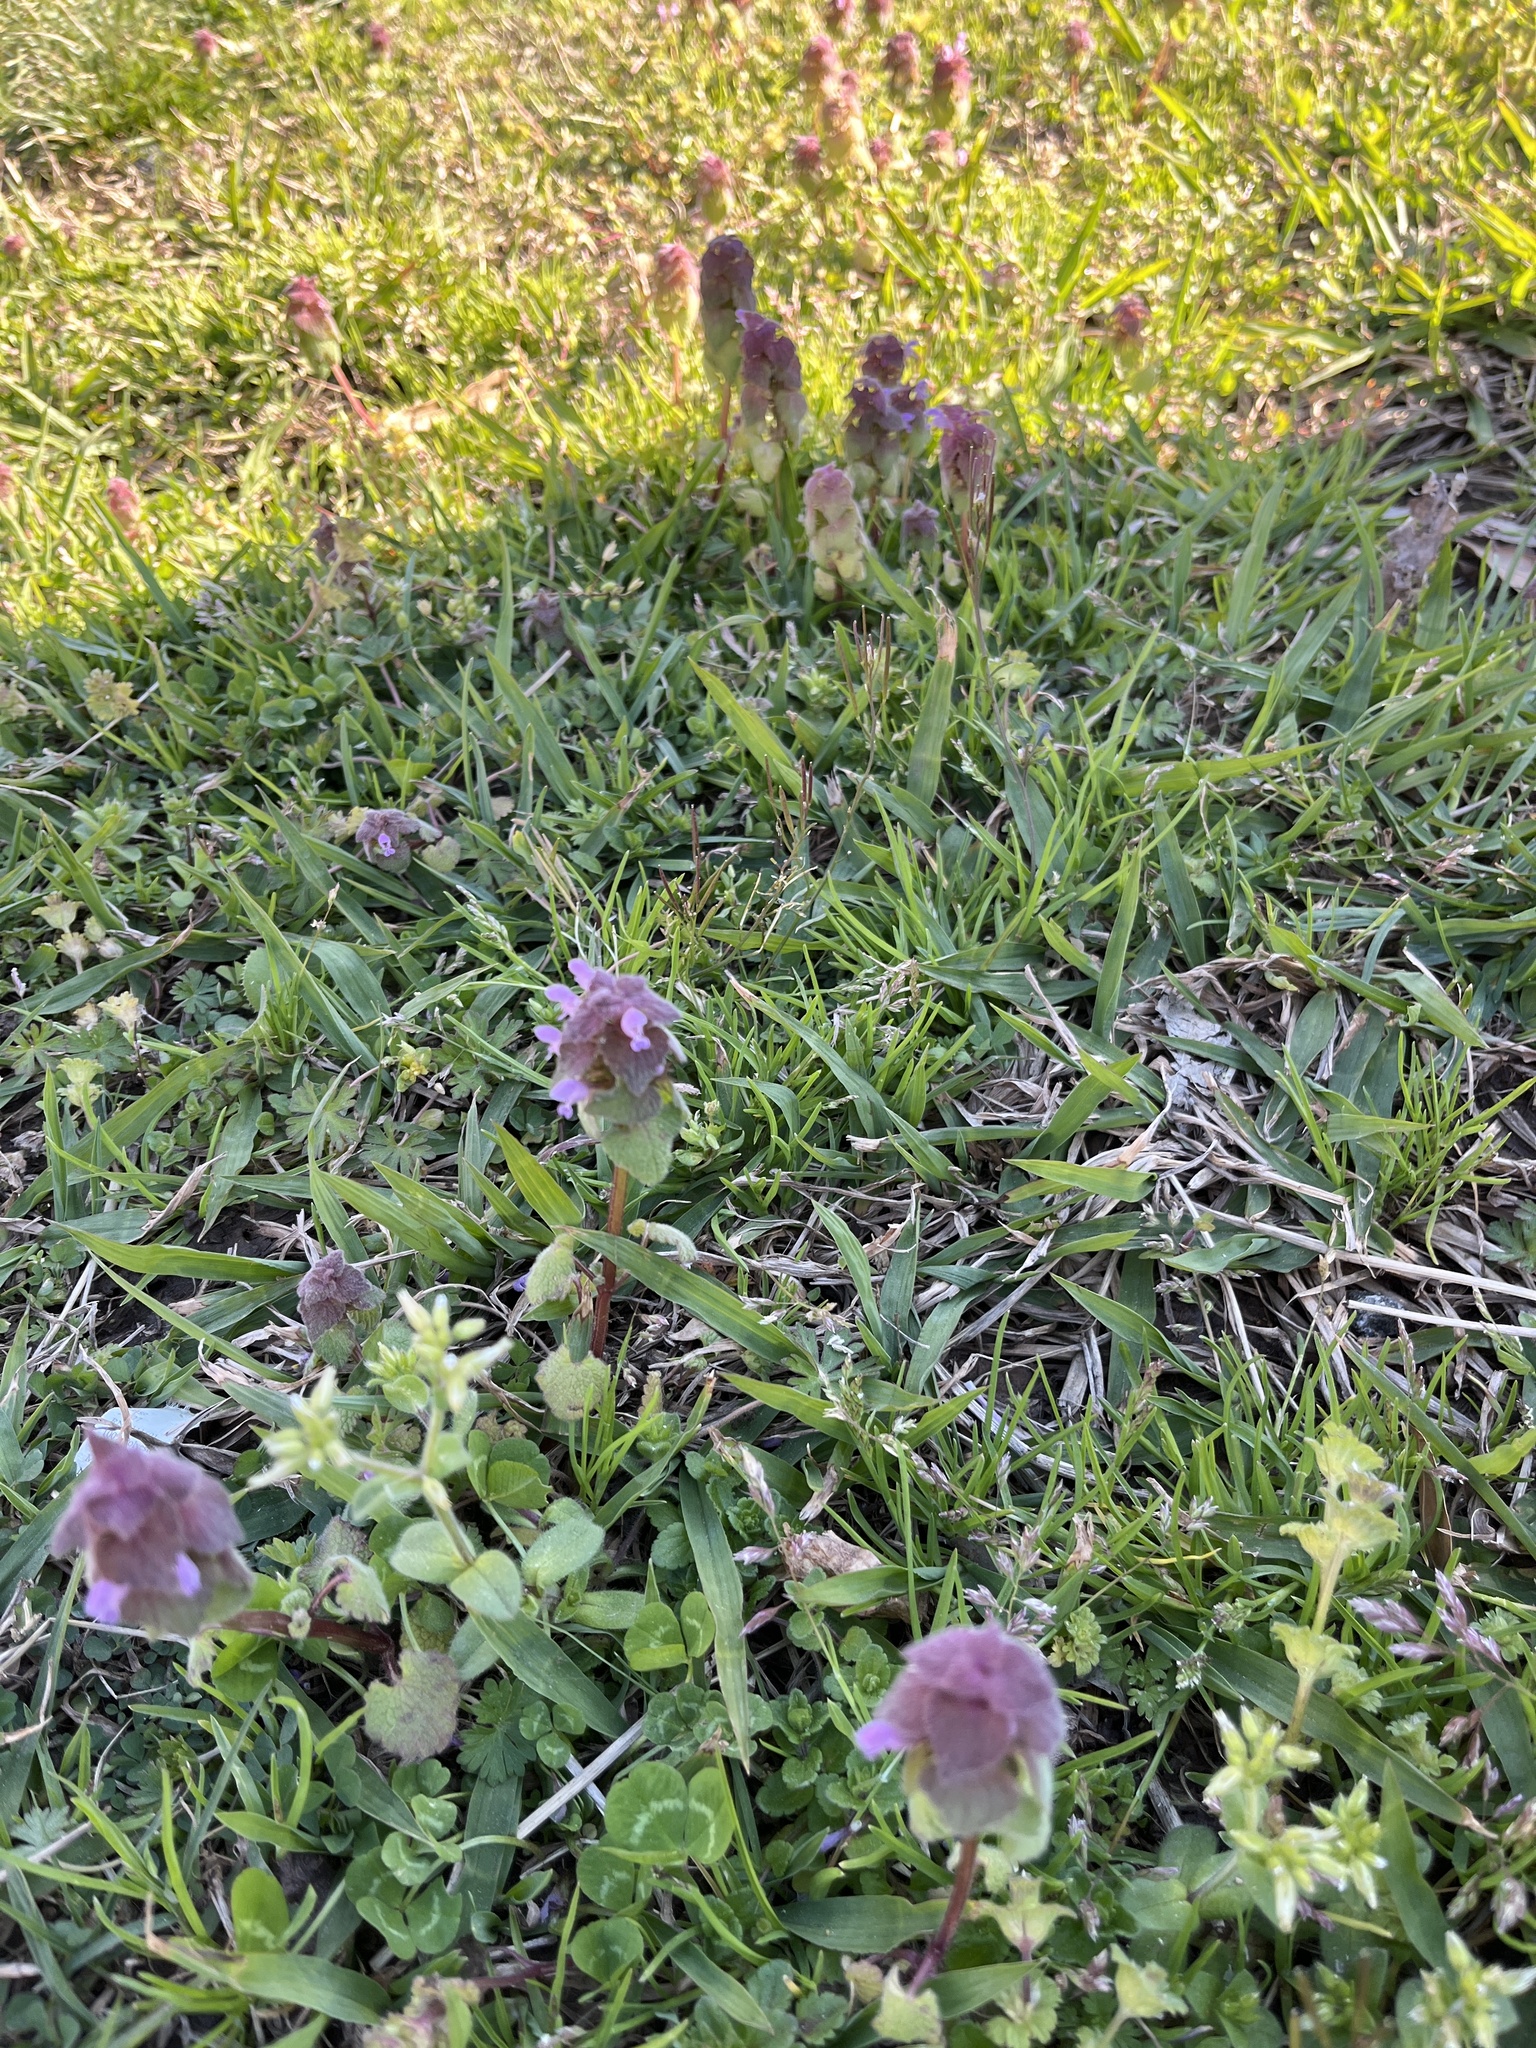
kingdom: Plantae
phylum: Tracheophyta
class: Magnoliopsida
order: Lamiales
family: Lamiaceae
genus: Lamium
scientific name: Lamium purpureum
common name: Red dead-nettle
